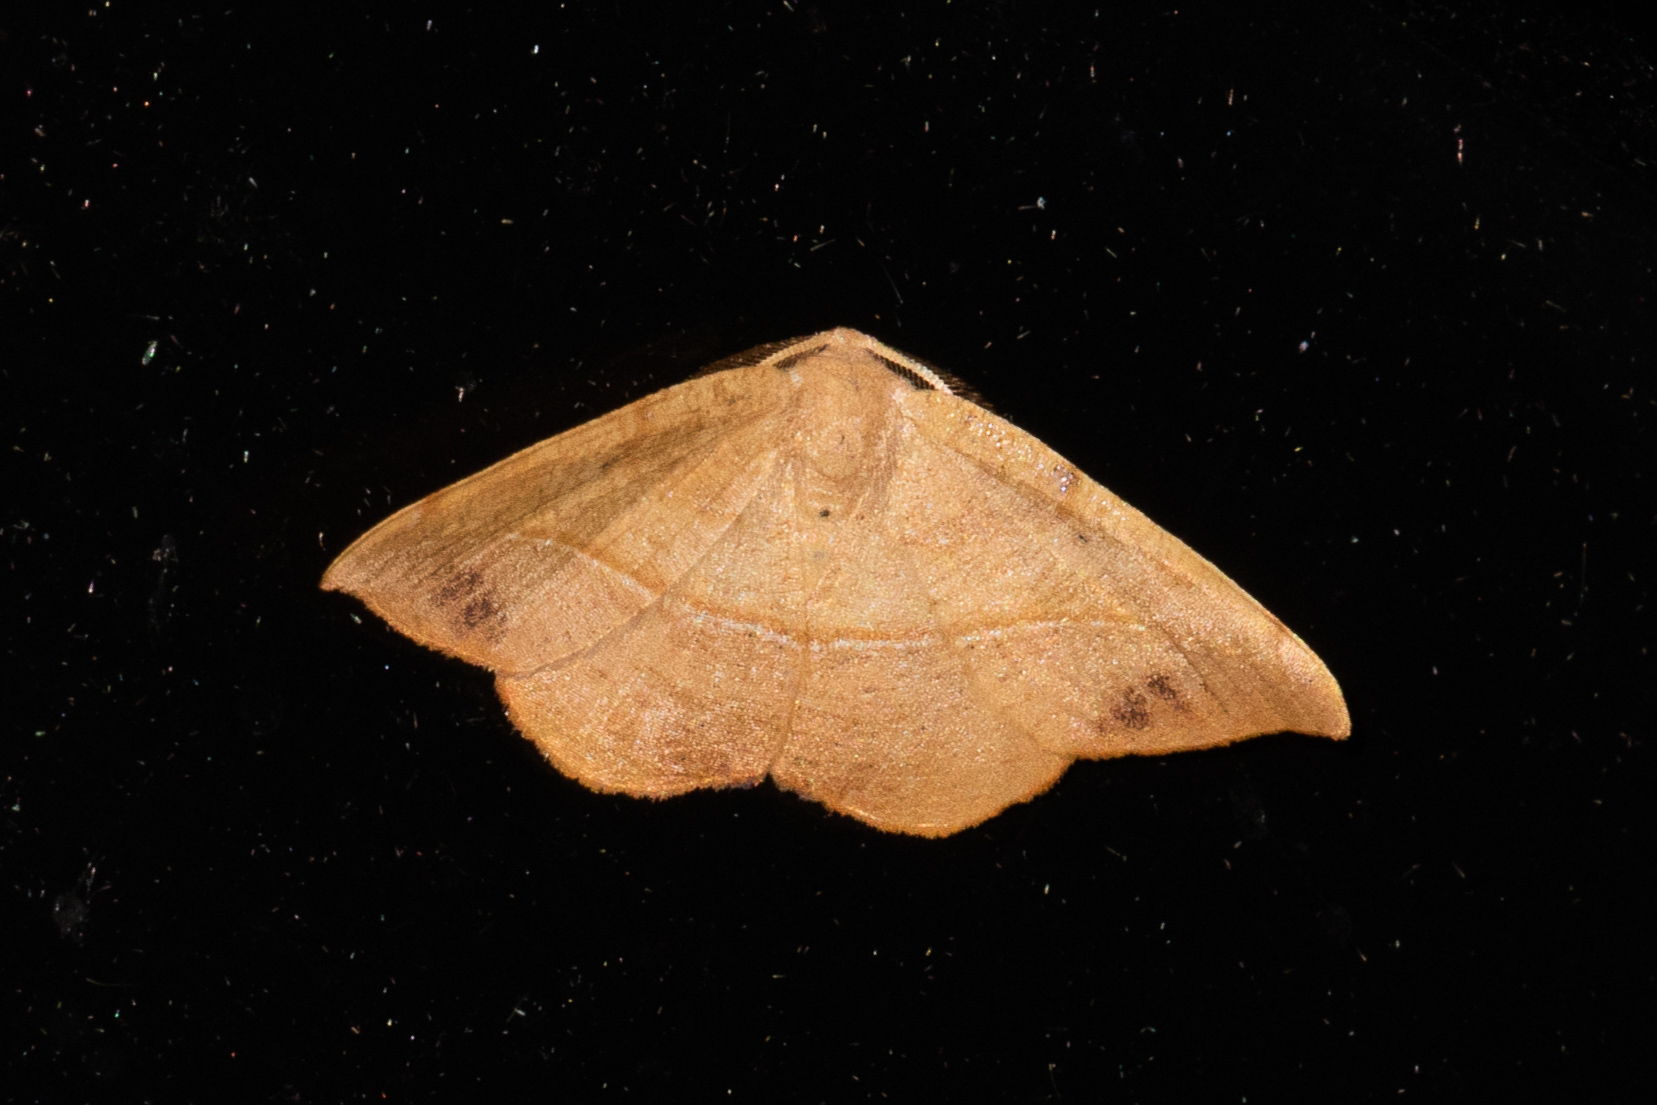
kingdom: Animalia
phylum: Arthropoda
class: Insecta
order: Lepidoptera
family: Geometridae
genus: Patalene
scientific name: Patalene olyzonaria
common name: Juniper geometer moth
